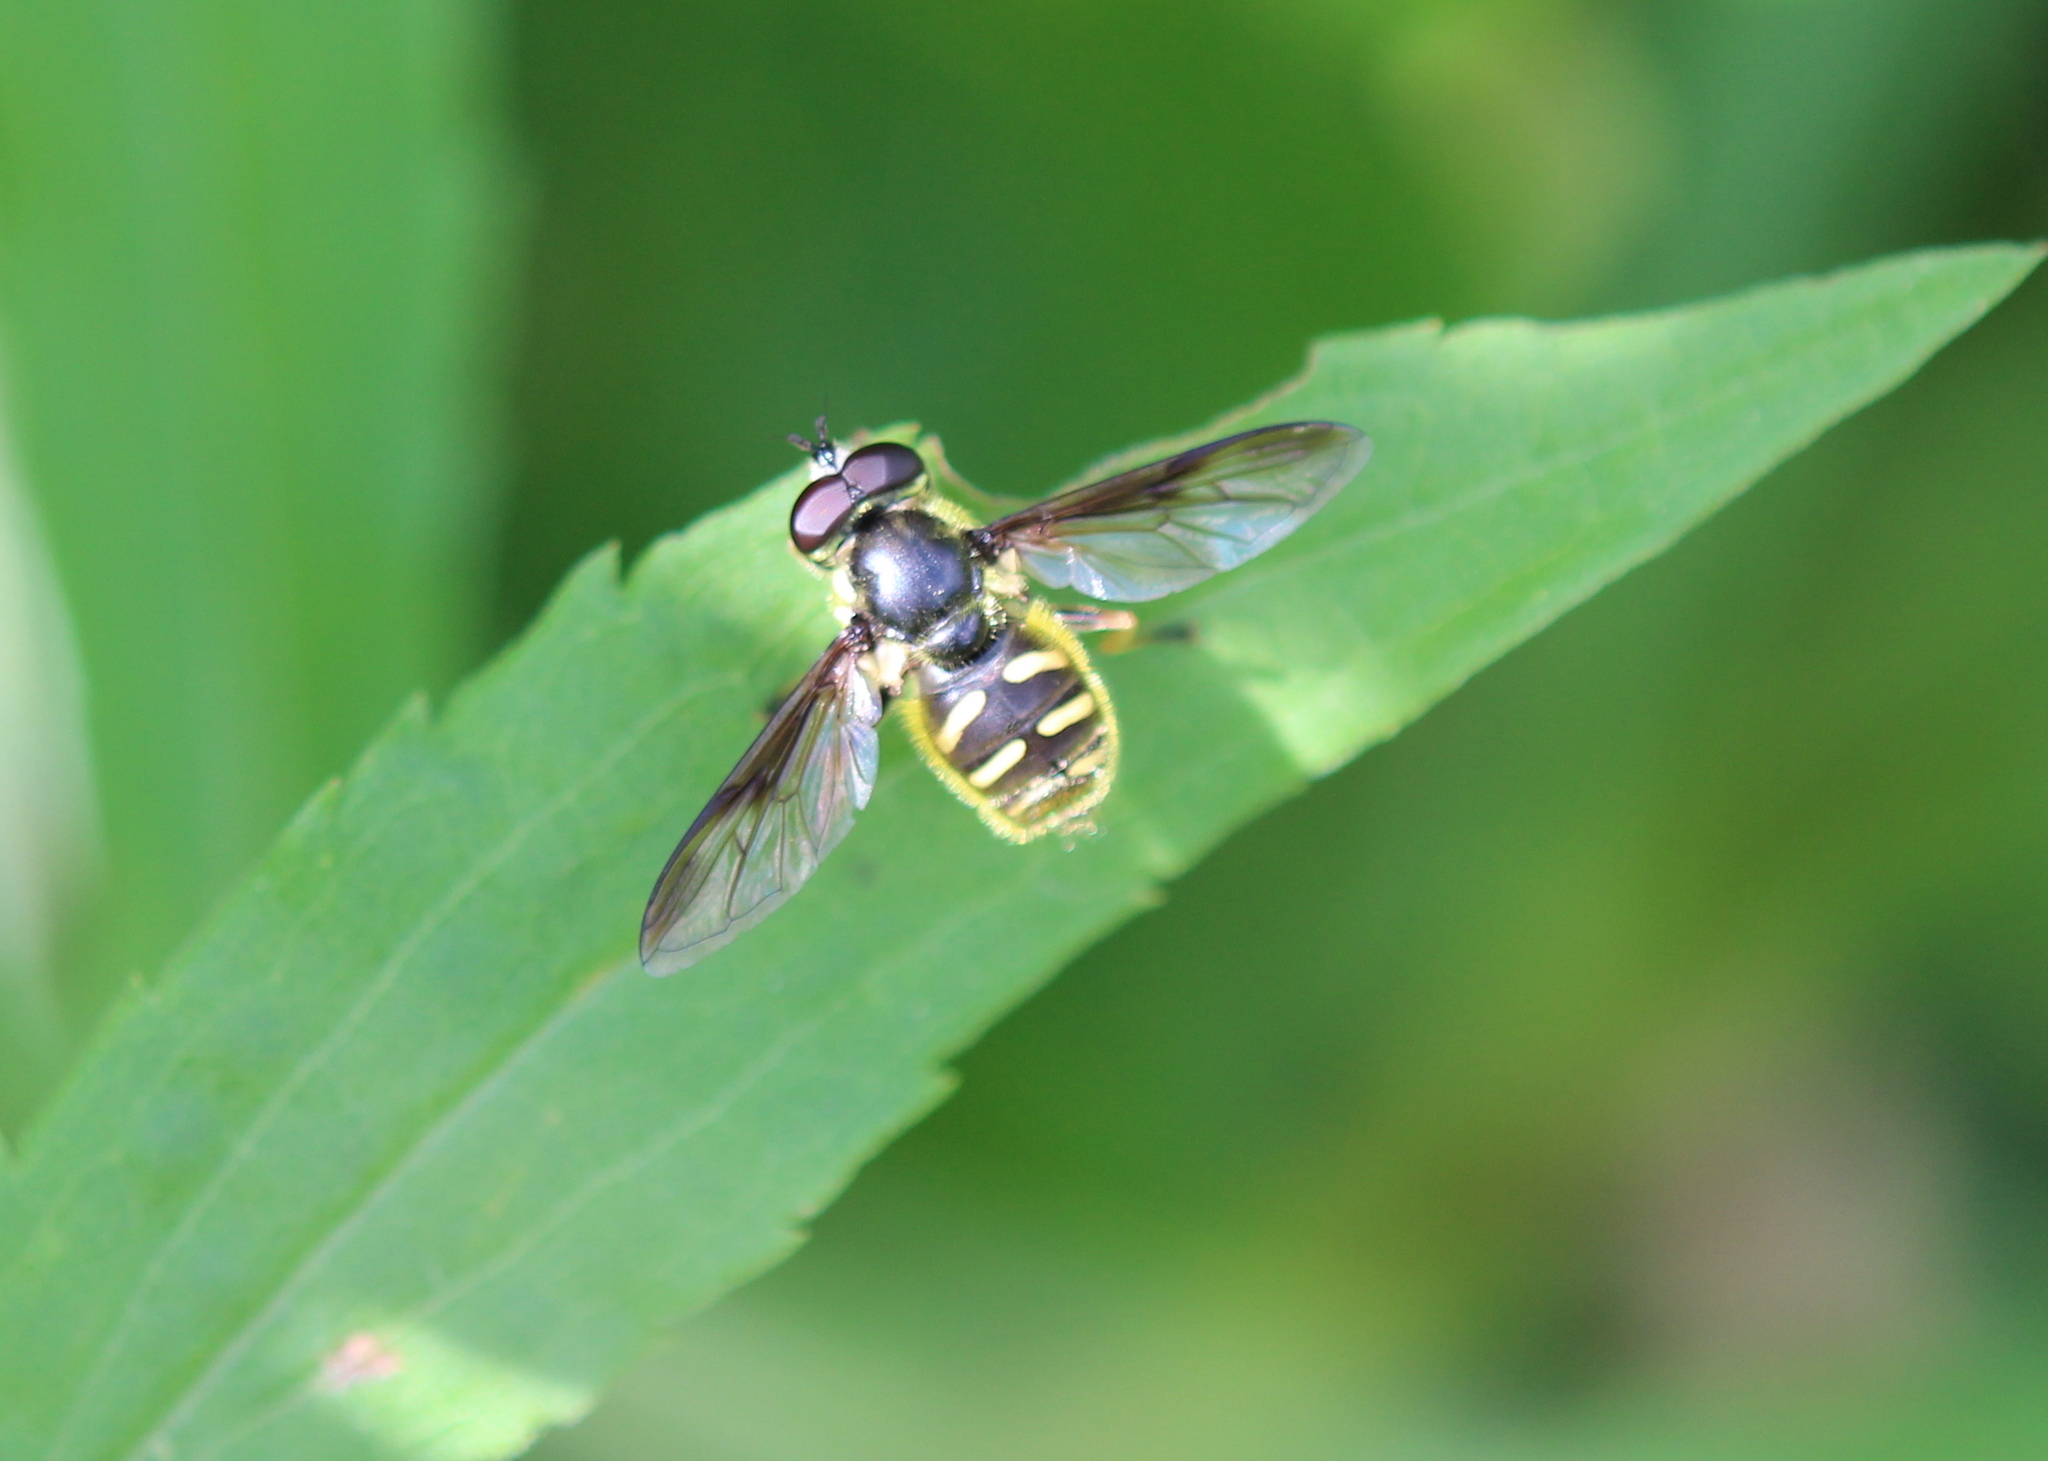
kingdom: Animalia
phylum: Arthropoda
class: Insecta
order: Diptera
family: Syrphidae
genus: Sericomyia
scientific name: Sericomyia chrysotoxoides
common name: Oblique-banded pond fly
